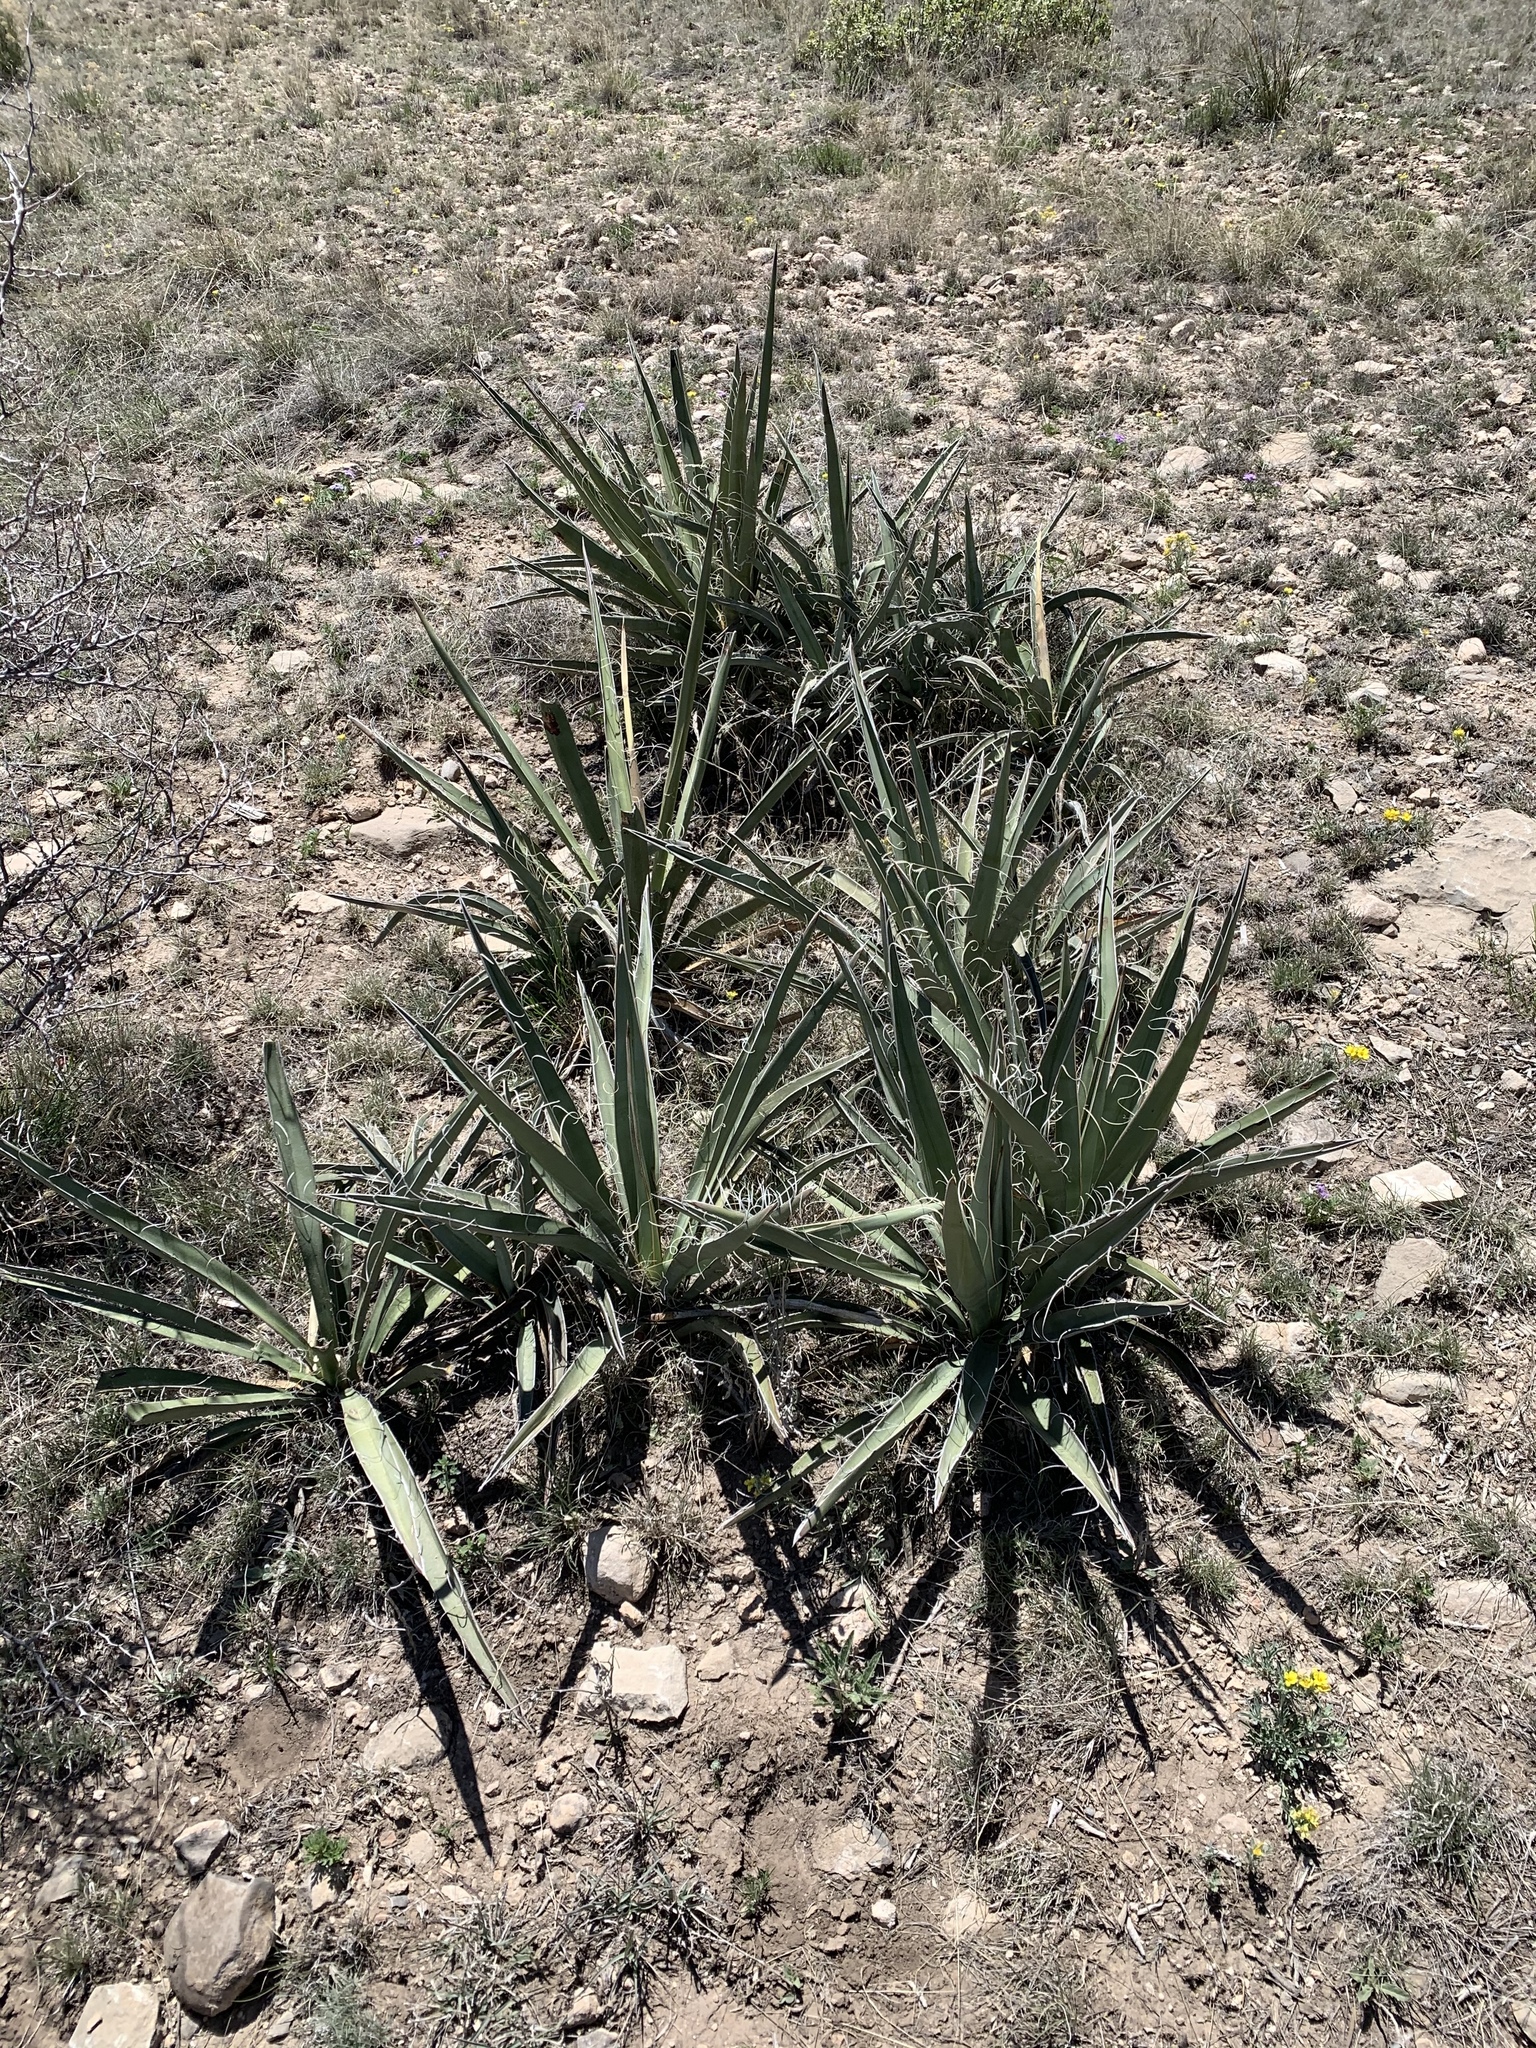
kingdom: Plantae
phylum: Tracheophyta
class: Liliopsida
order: Asparagales
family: Asparagaceae
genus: Yucca
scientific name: Yucca baccata
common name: Banana yucca
